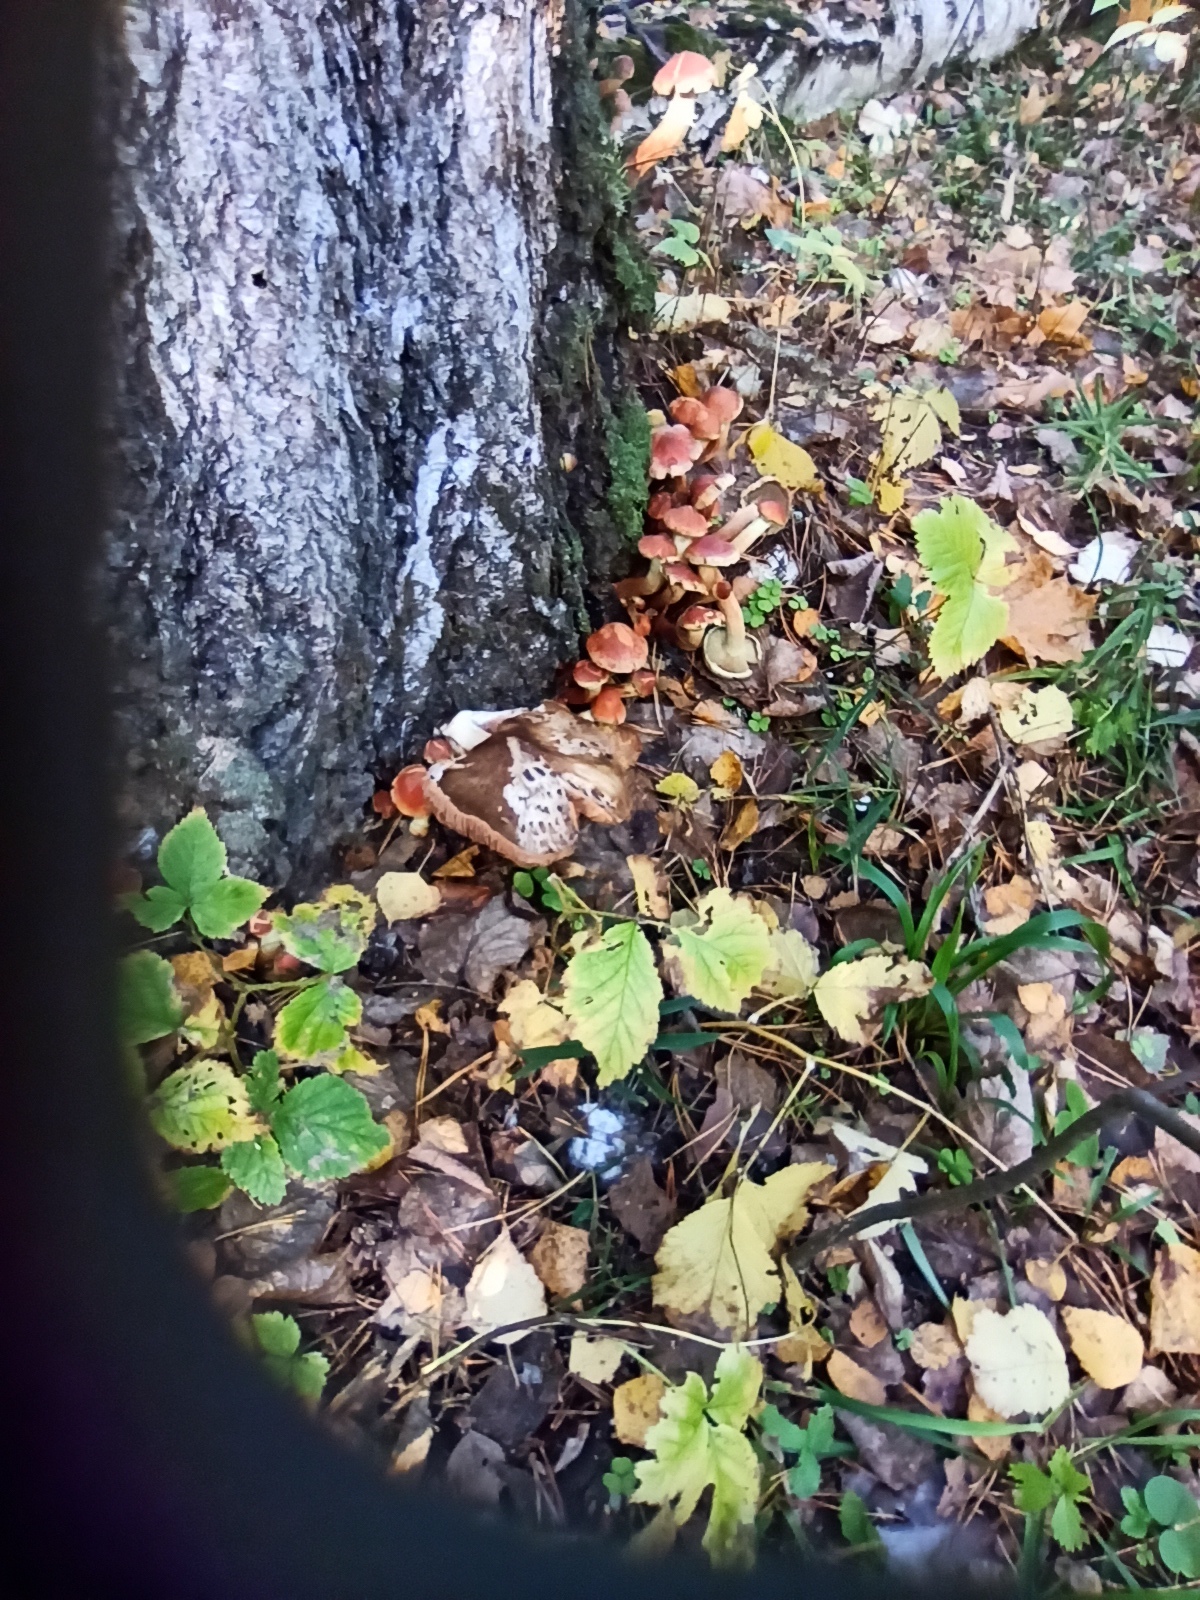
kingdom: Fungi
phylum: Basidiomycota
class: Agaricomycetes
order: Agaricales
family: Strophariaceae
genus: Hypholoma
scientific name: Hypholoma lateritium
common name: Brick caps
